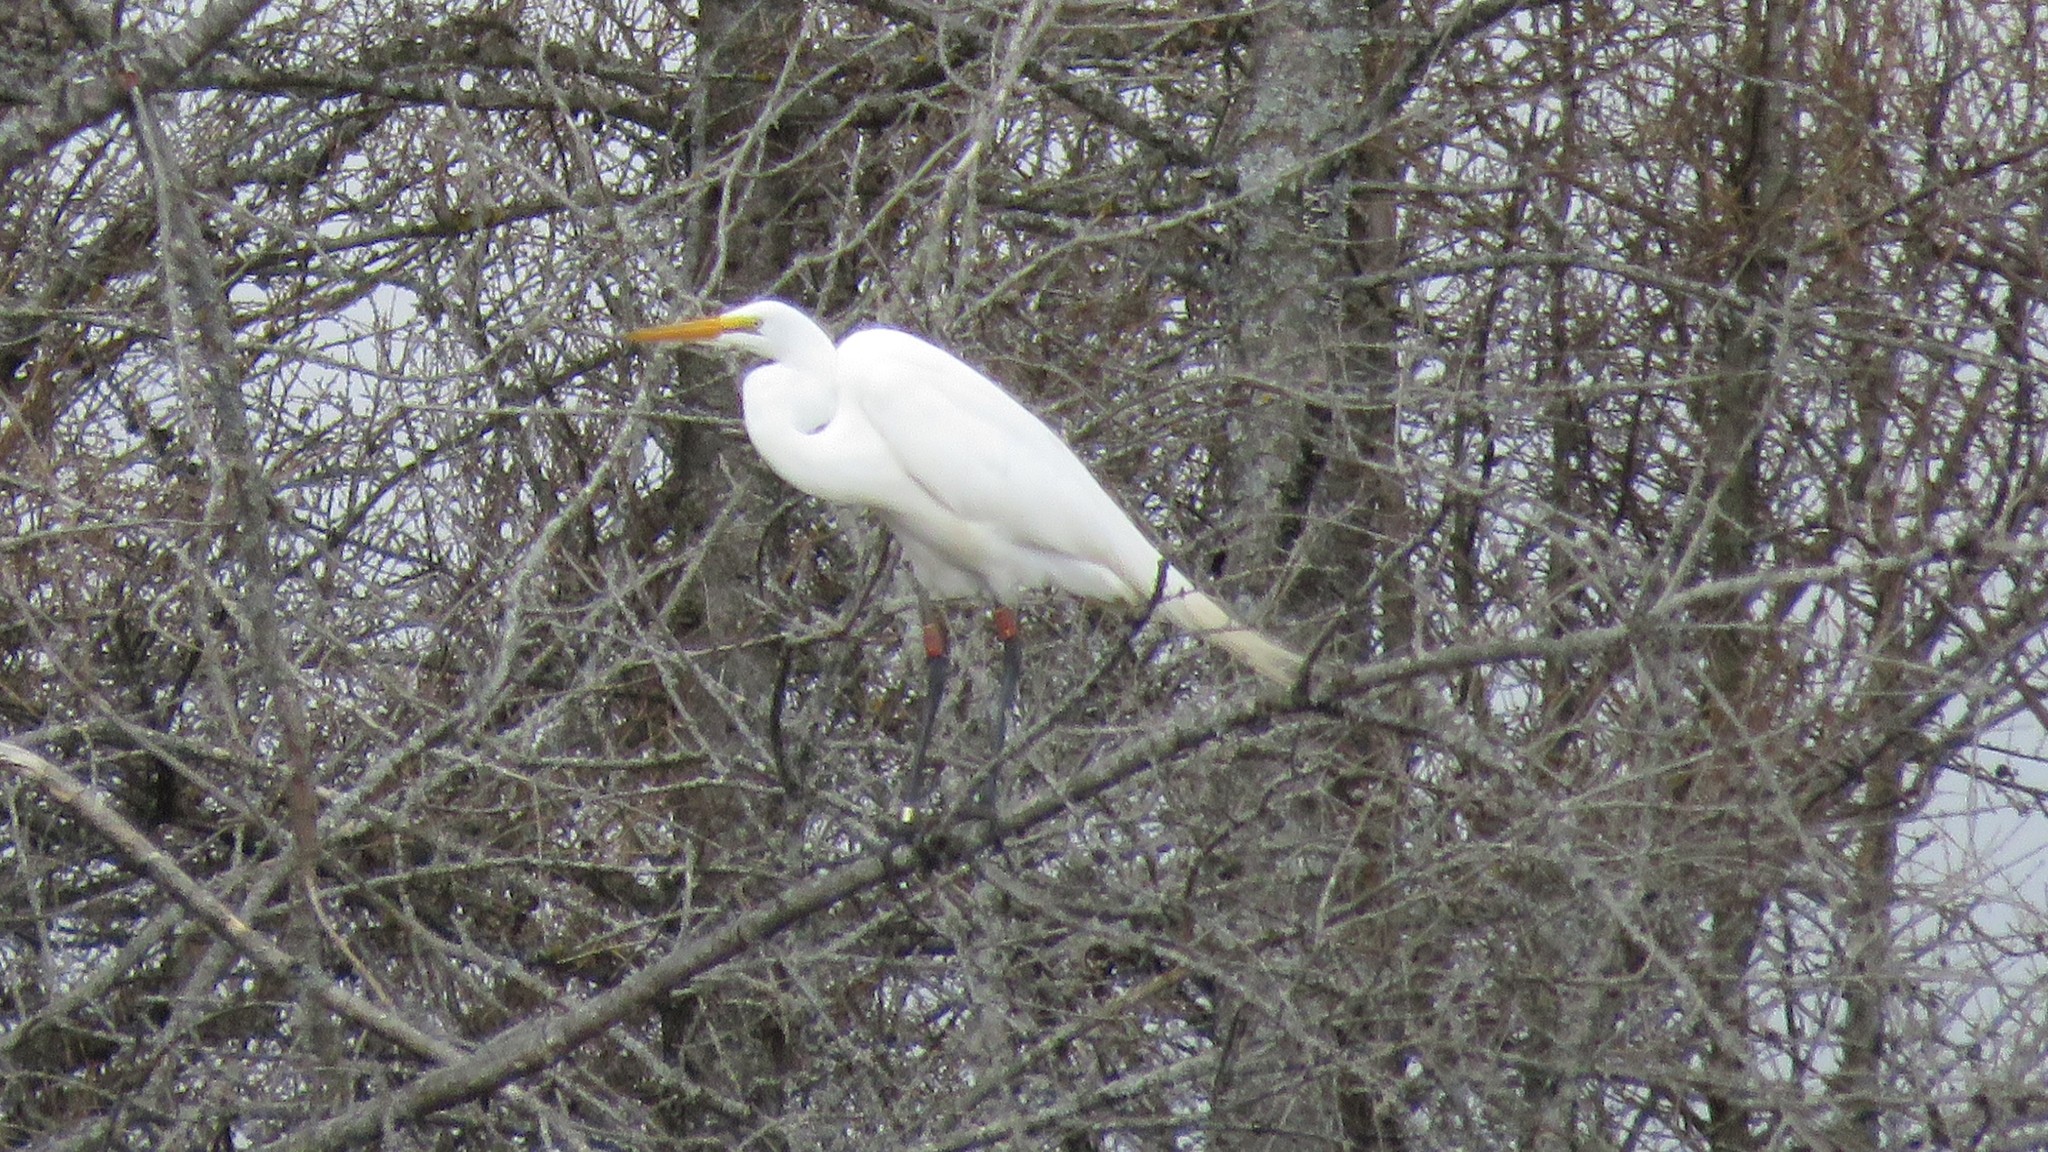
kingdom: Animalia
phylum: Chordata
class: Aves
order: Pelecaniformes
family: Ardeidae
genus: Ardea
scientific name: Ardea alba
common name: Great egret
